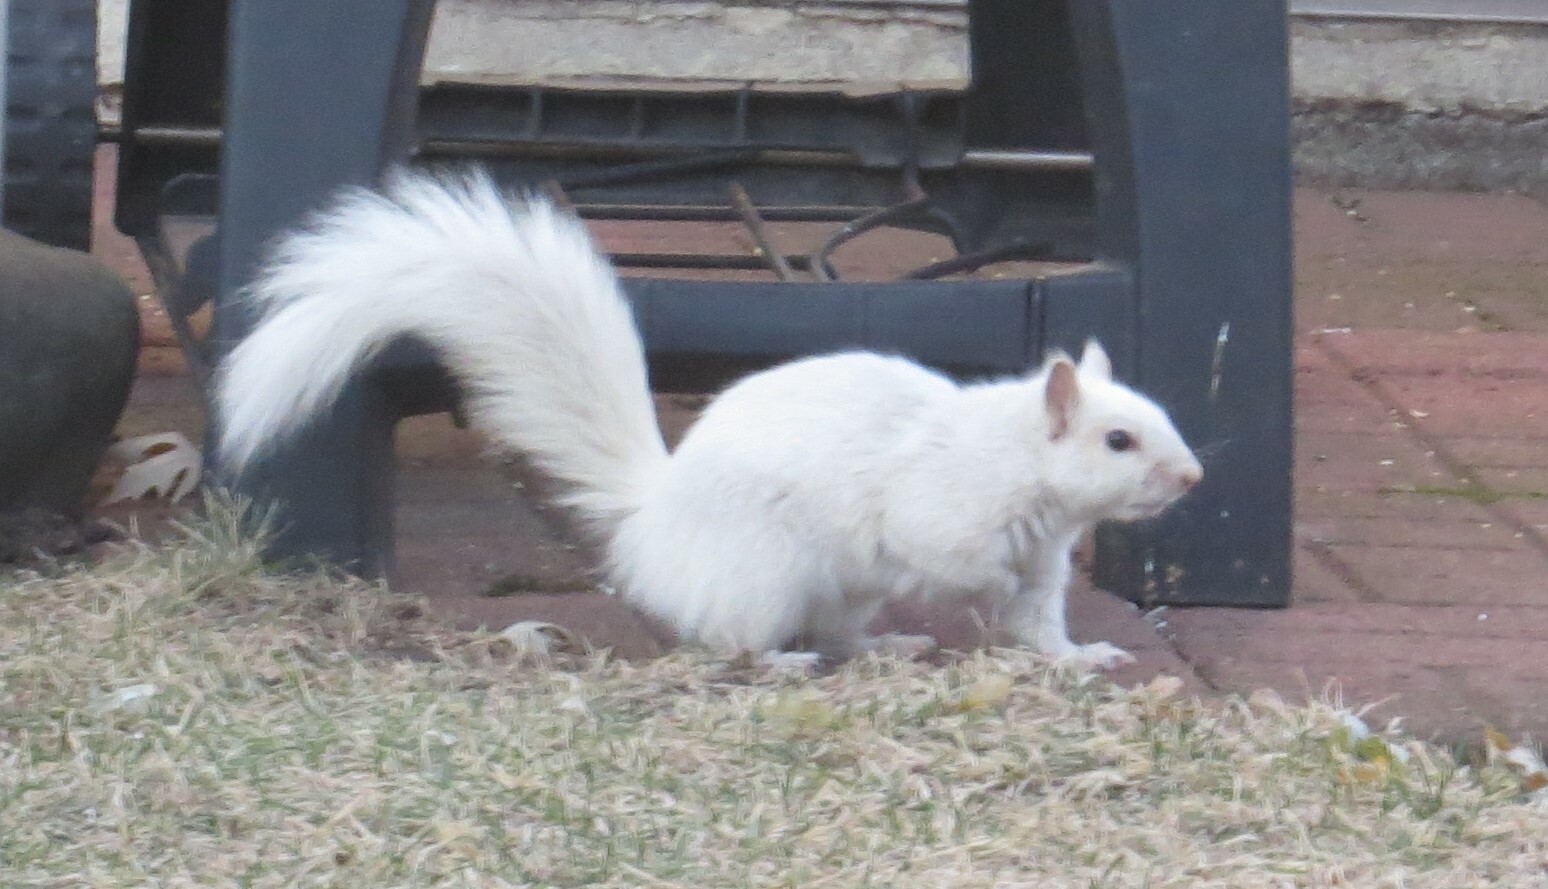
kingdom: Animalia
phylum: Chordata
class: Mammalia
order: Rodentia
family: Sciuridae
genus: Sciurus
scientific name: Sciurus carolinensis
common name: Eastern gray squirrel
